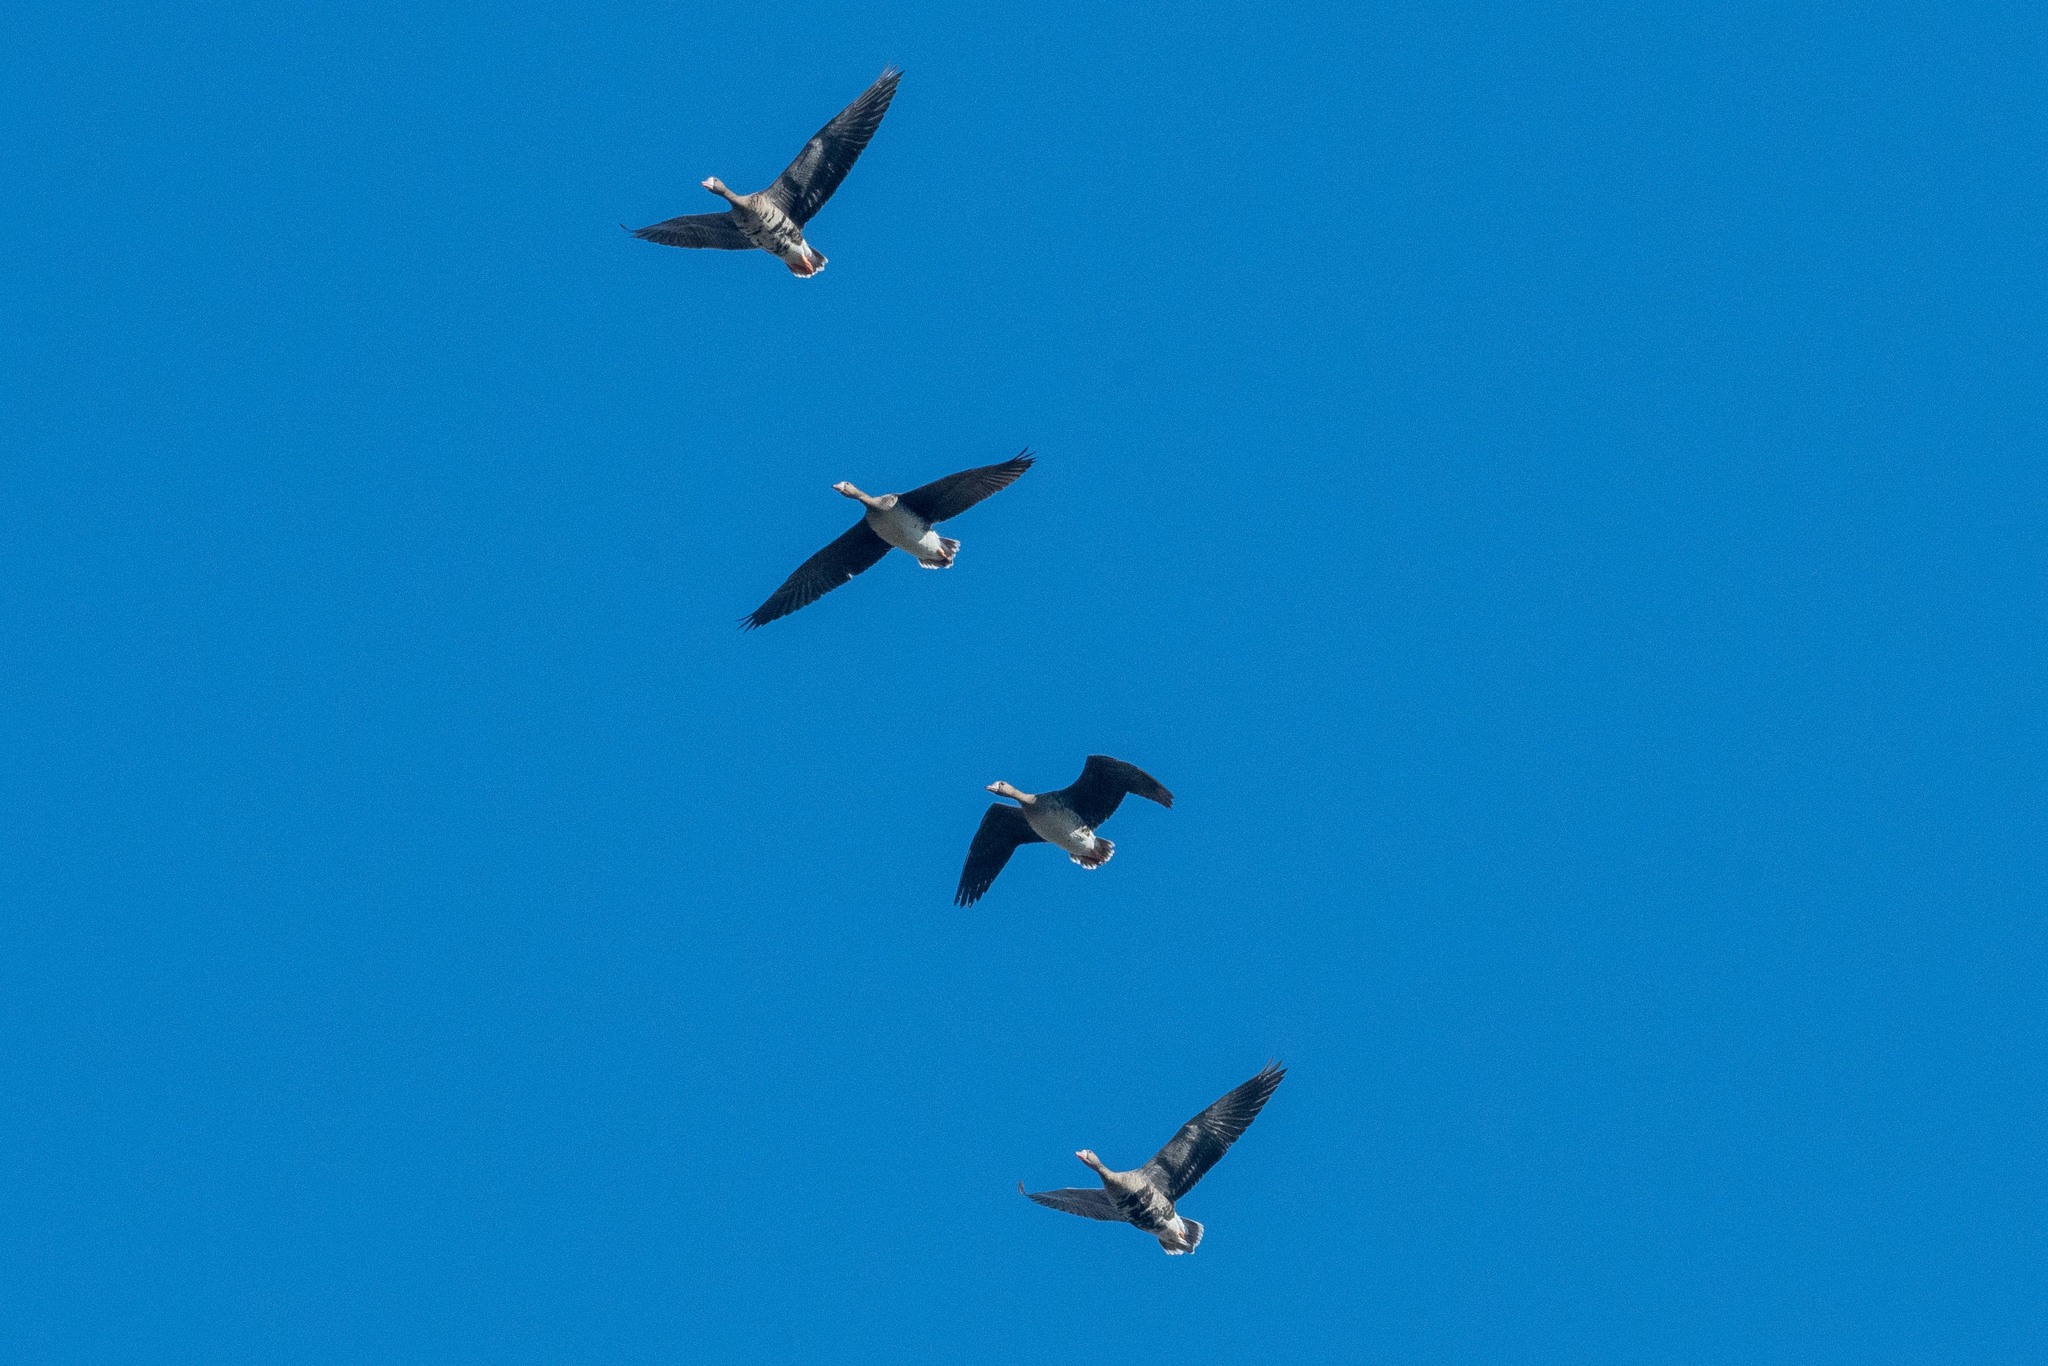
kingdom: Animalia
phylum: Chordata
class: Aves
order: Anseriformes
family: Anatidae
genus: Anser
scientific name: Anser albifrons
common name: Greater white-fronted goose
